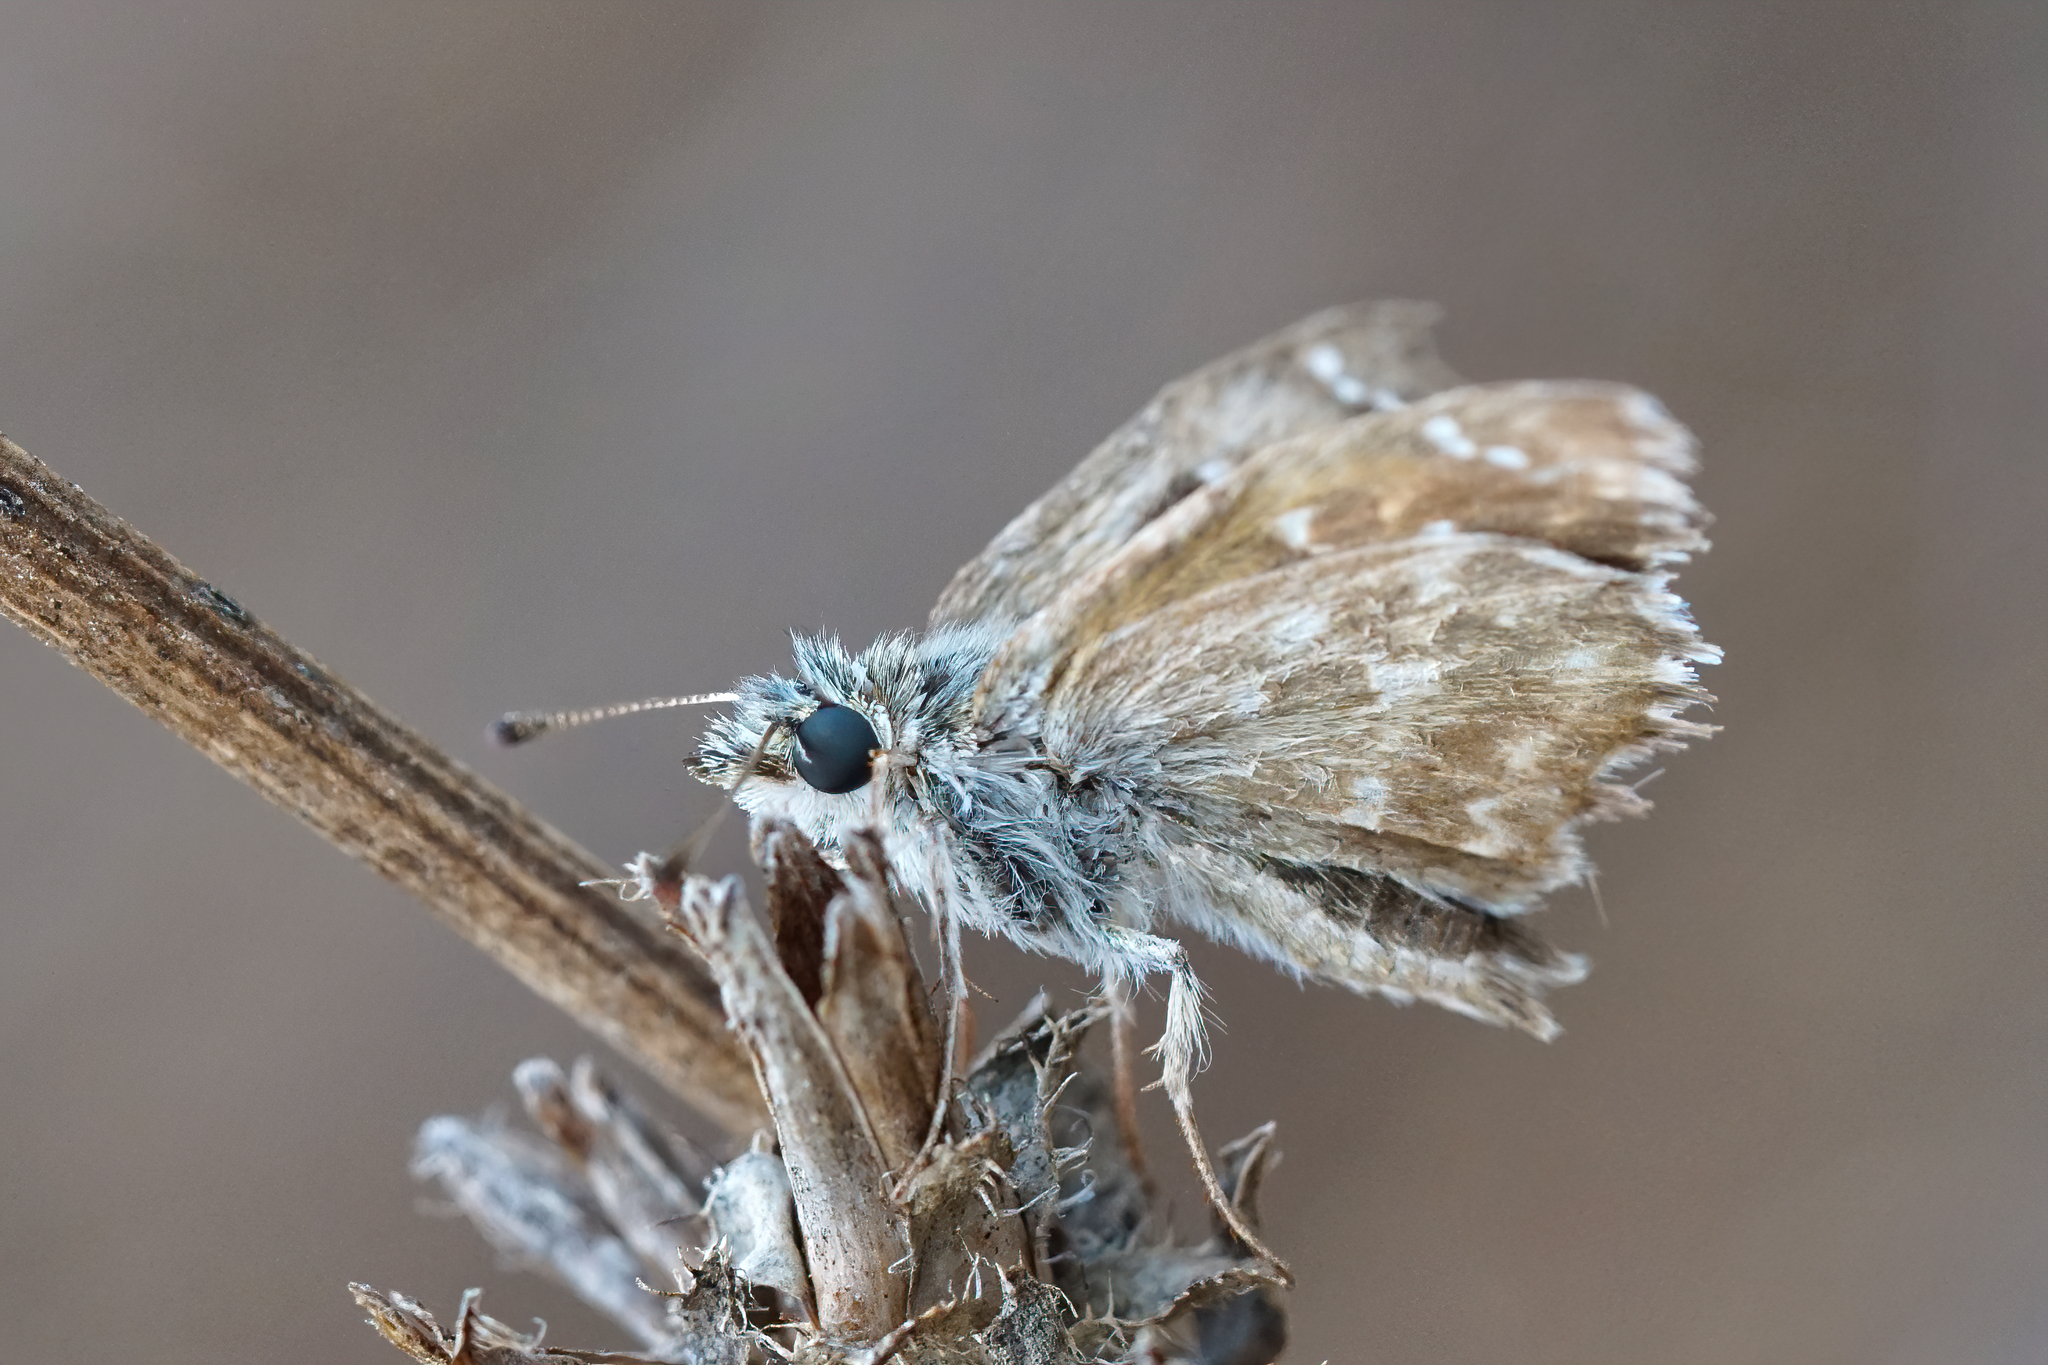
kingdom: Animalia
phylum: Arthropoda
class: Insecta
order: Lepidoptera
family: Hesperiidae
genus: Carcharodus
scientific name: Carcharodus alceae
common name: Mallow skipper
